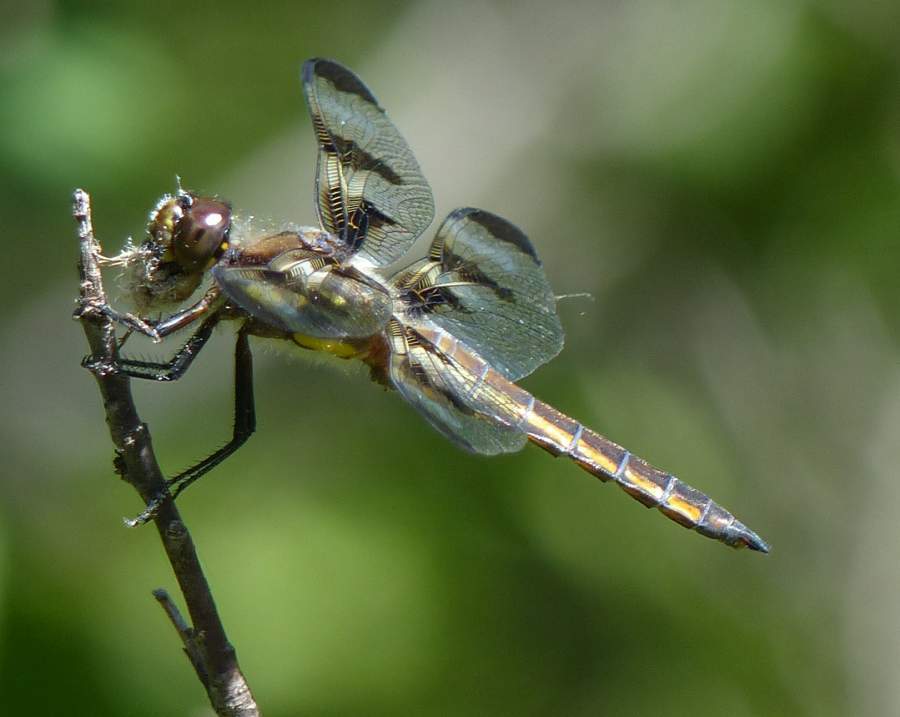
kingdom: Animalia
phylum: Arthropoda
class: Insecta
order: Odonata
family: Libellulidae
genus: Libellula
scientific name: Libellula pulchella
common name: Twelve-spotted skimmer
